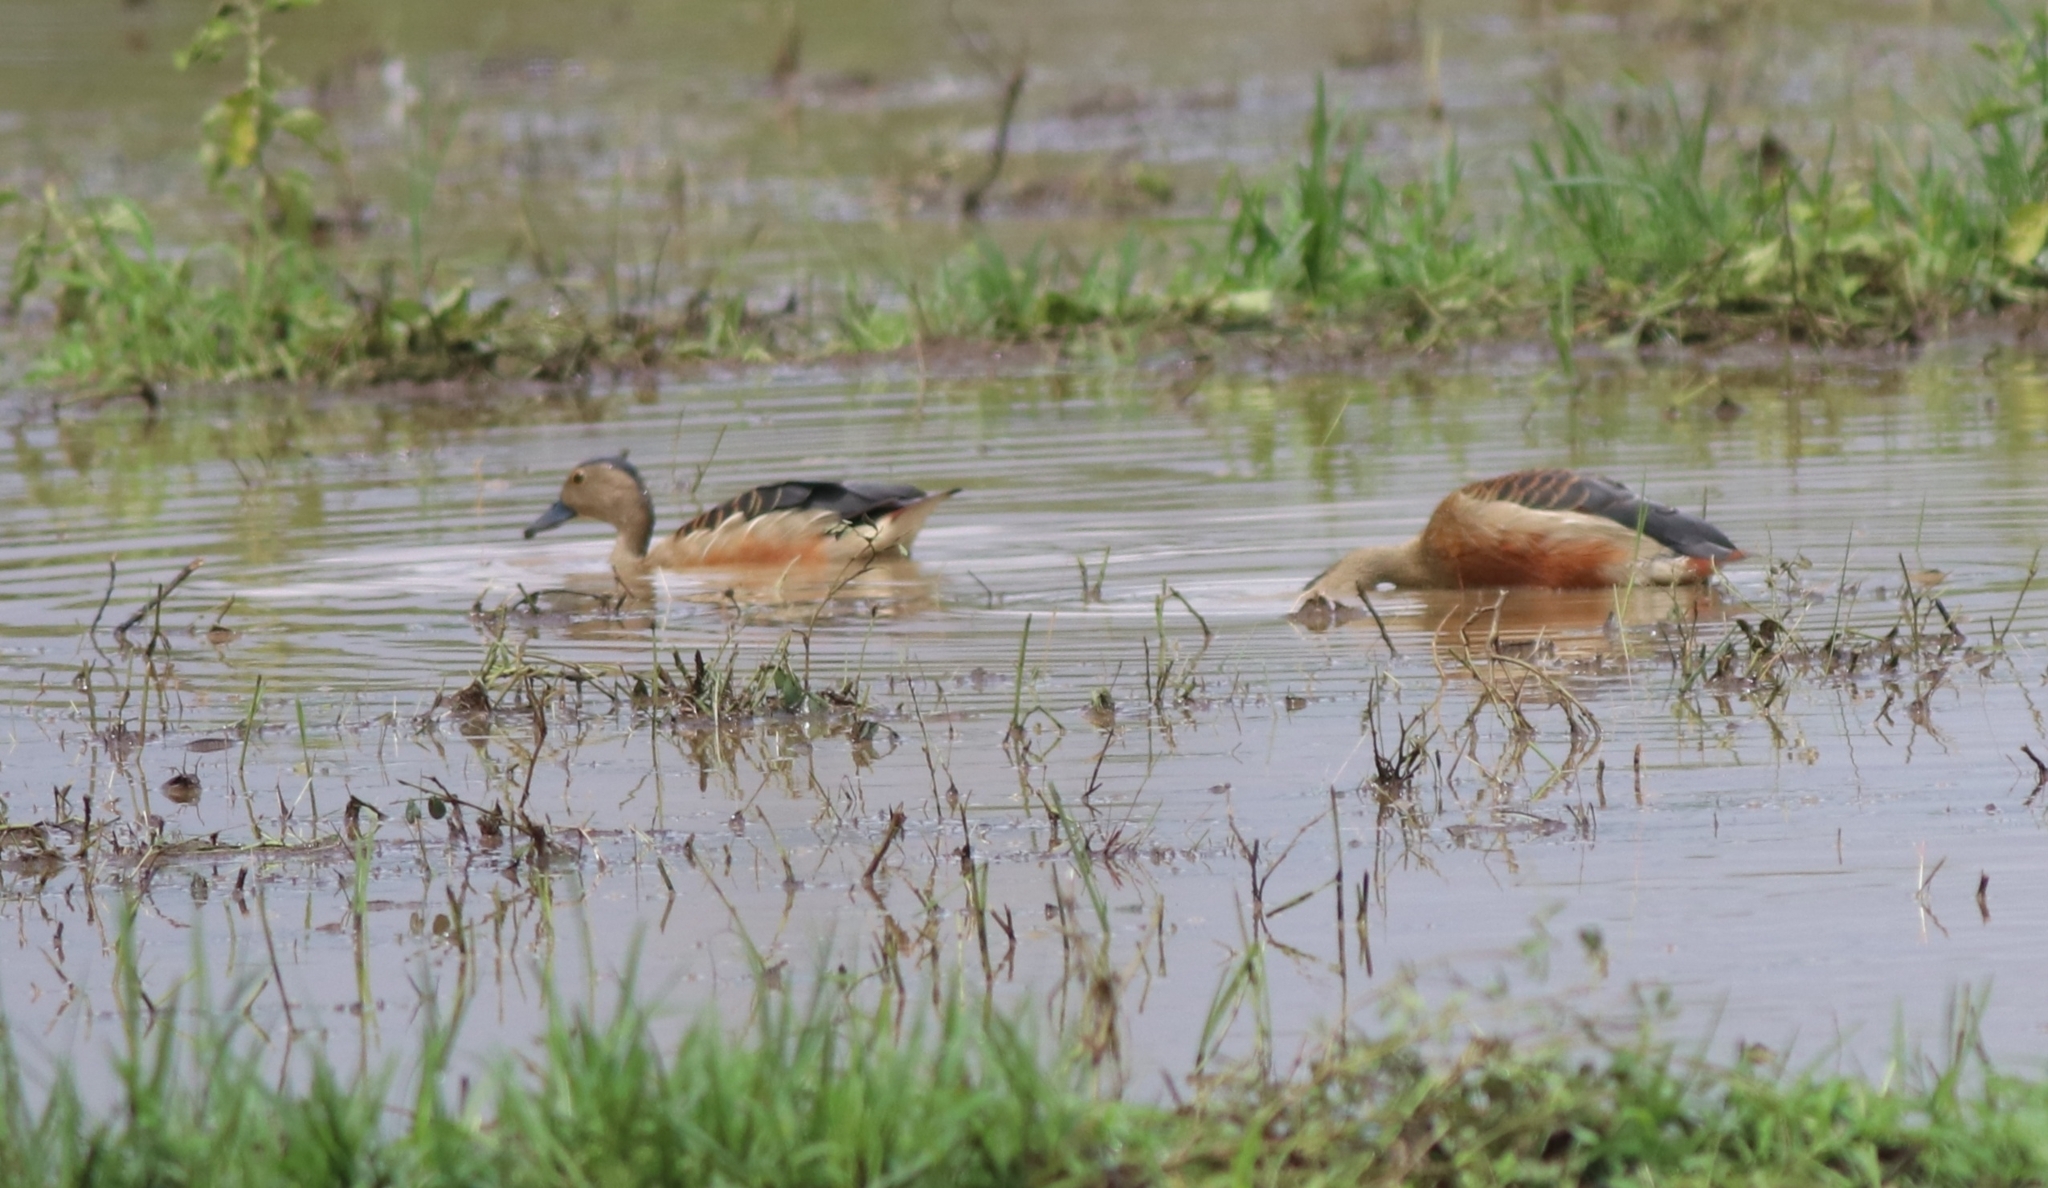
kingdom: Animalia
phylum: Chordata
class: Aves
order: Anseriformes
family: Anatidae
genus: Dendrocygna
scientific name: Dendrocygna javanica
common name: Lesser whistling-duck
